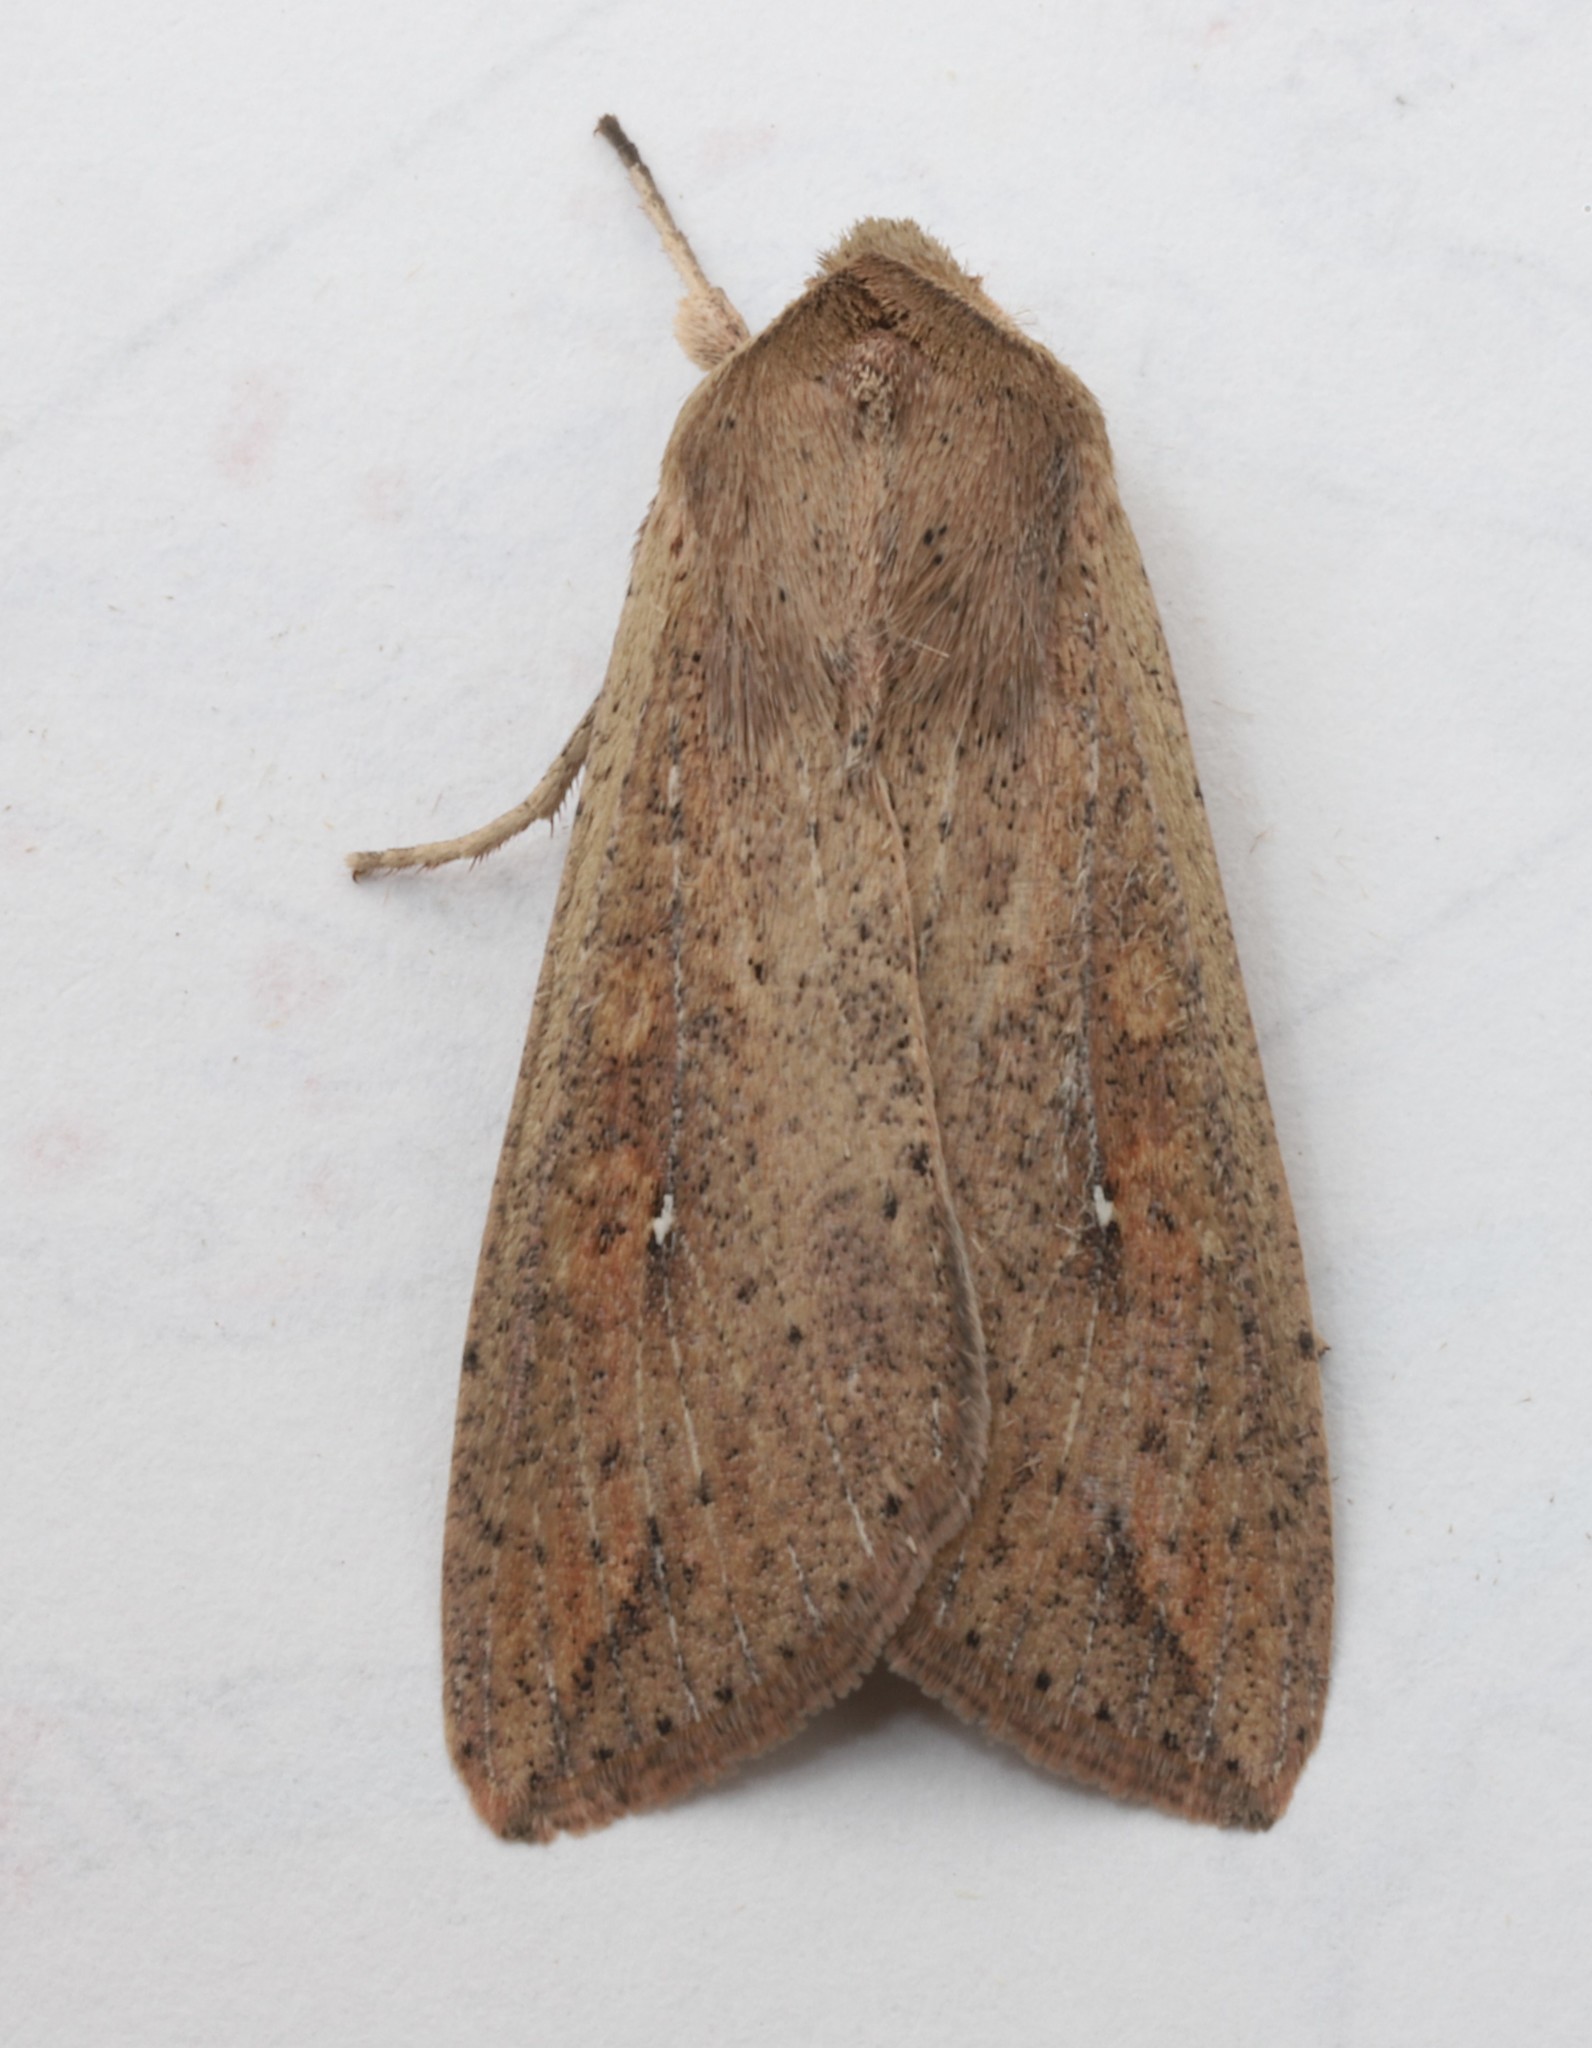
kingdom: Animalia
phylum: Arthropoda
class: Insecta
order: Lepidoptera
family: Noctuidae
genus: Mythimna
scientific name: Mythimna unipuncta
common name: White-speck
